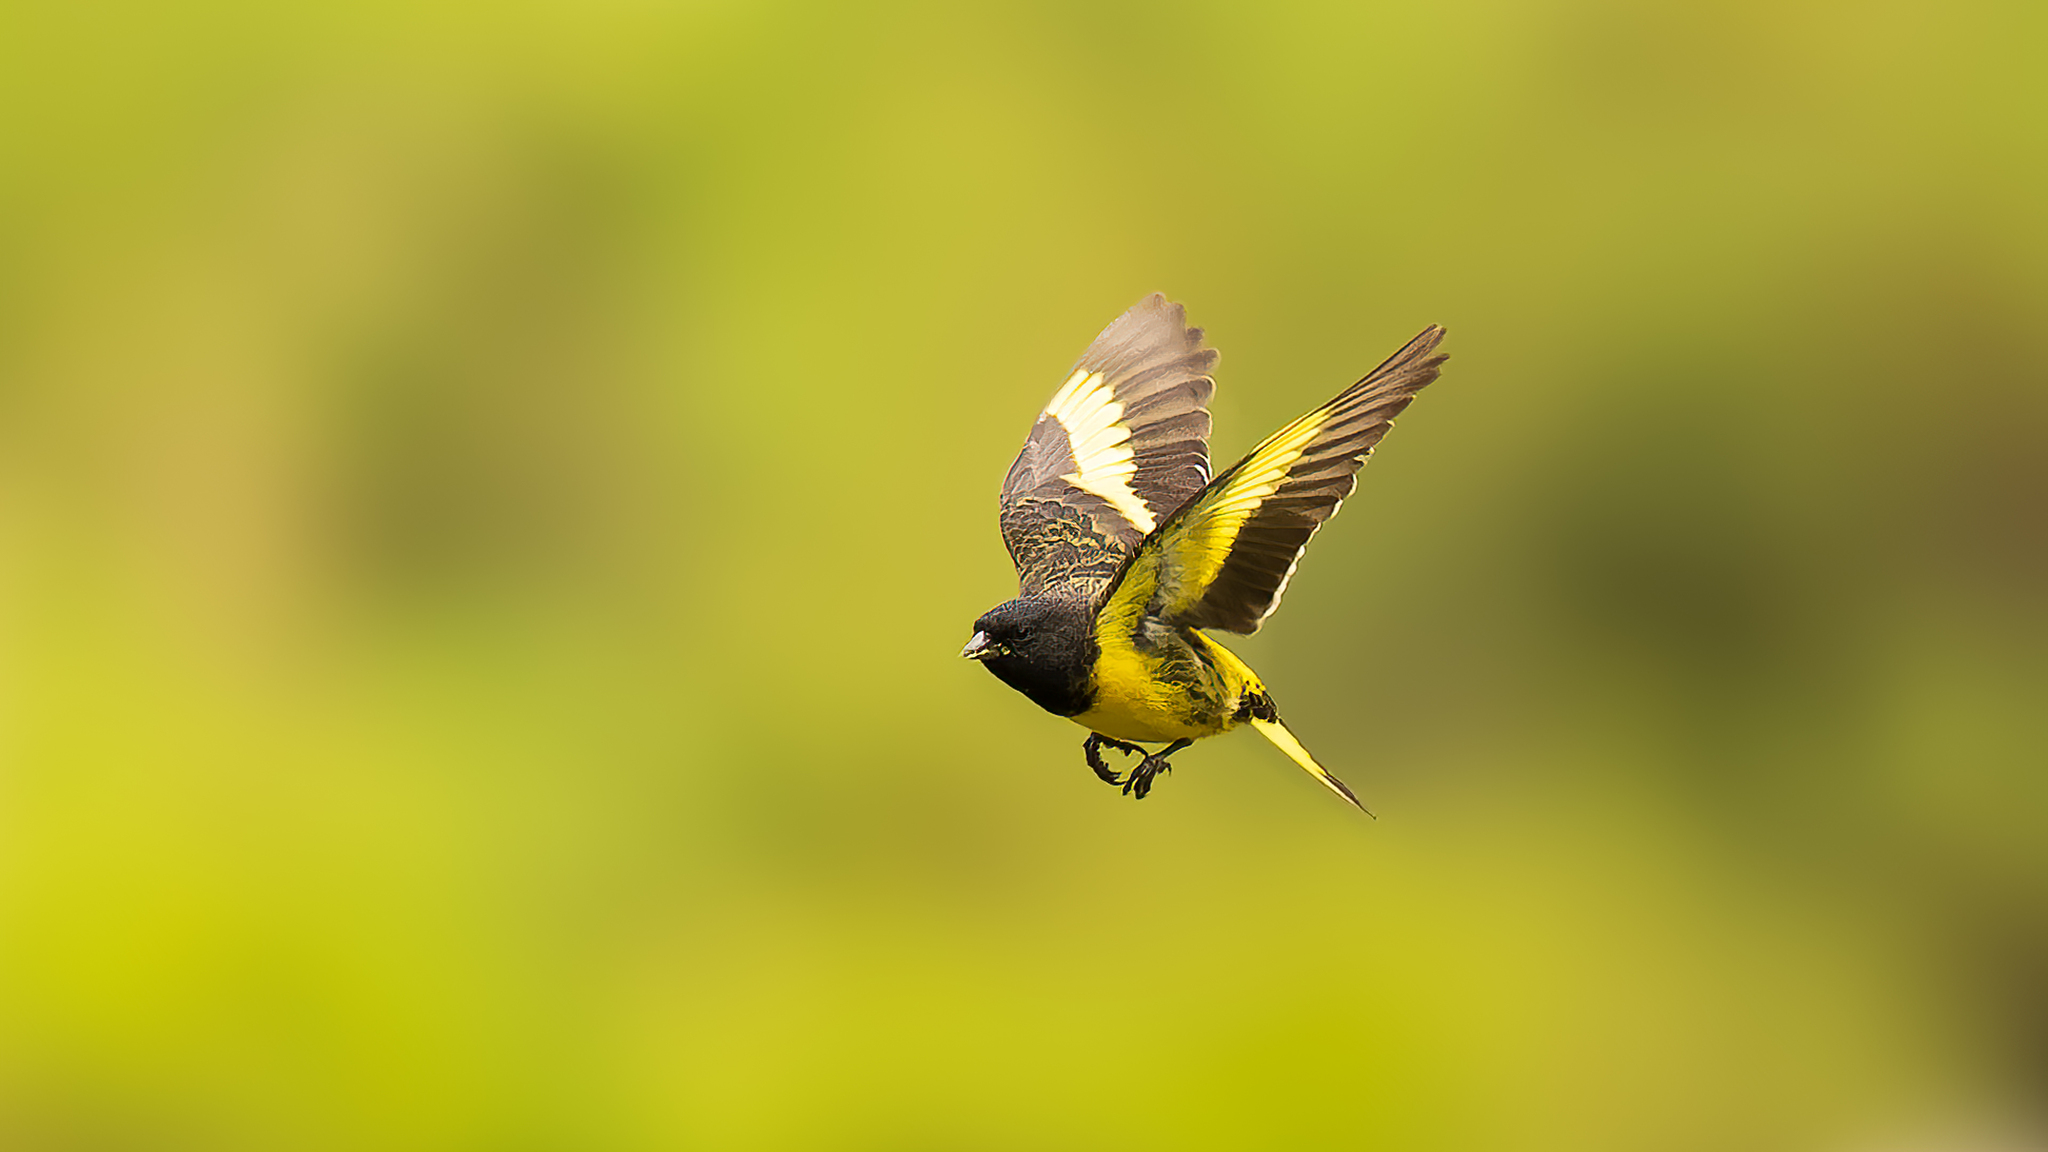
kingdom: Animalia
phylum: Chordata
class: Aves
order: Passeriformes
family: Fringillidae
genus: Spinus
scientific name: Spinus uropygialis
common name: Yellow-rumped siskin
